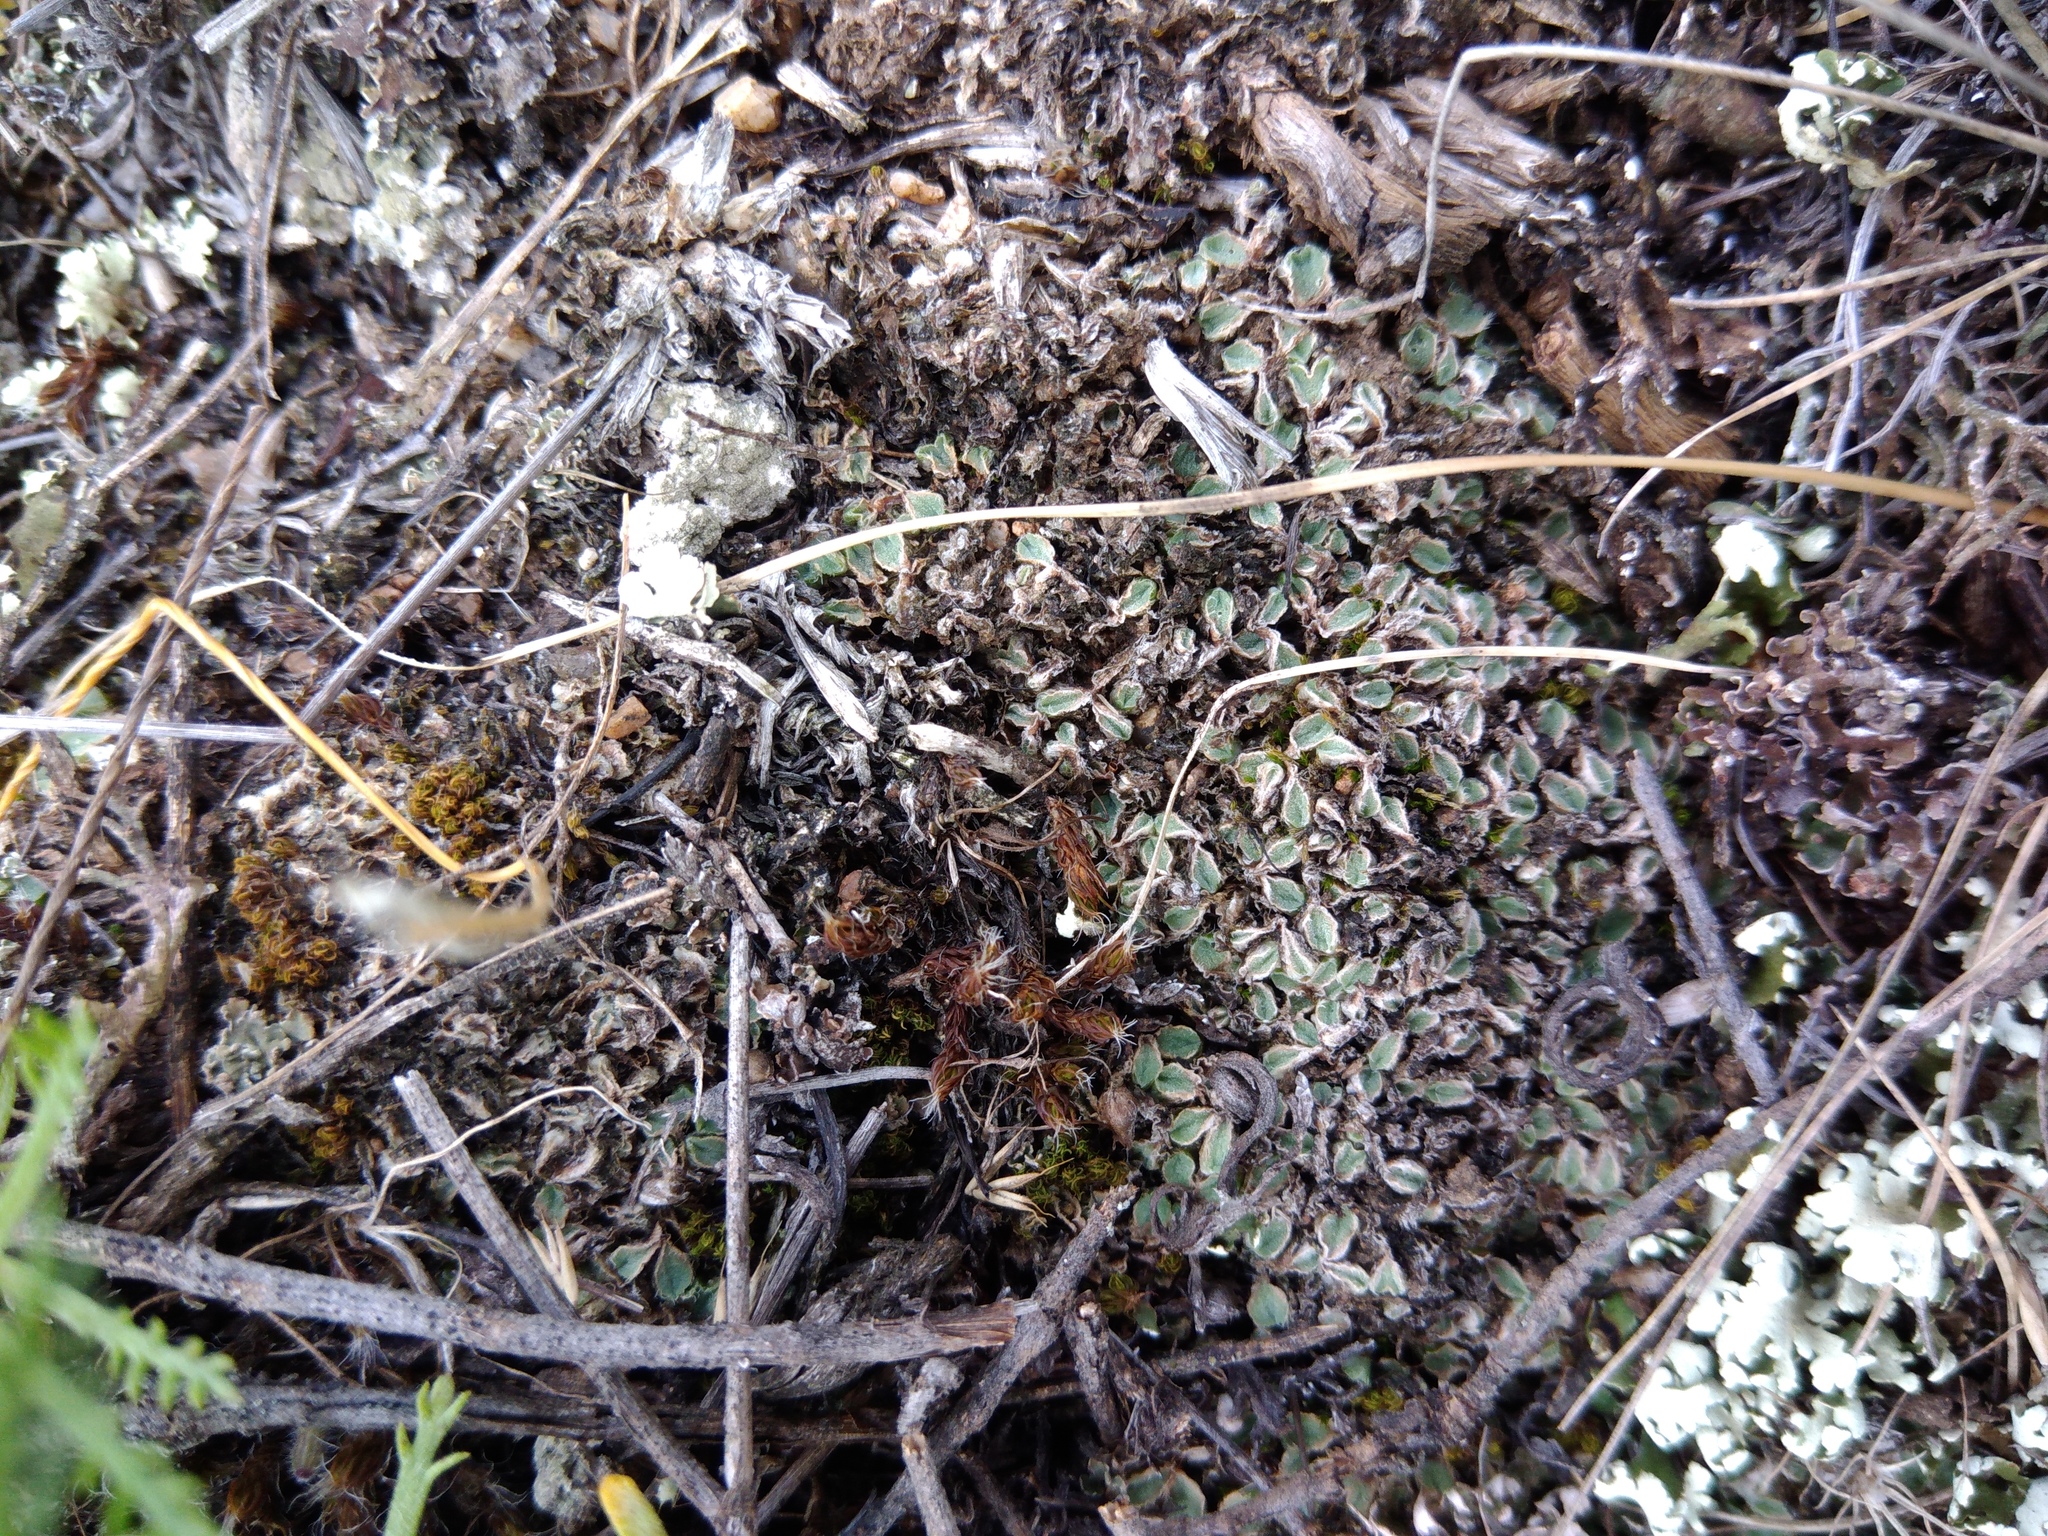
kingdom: Plantae
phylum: Marchantiophyta
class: Marchantiopsida
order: Marchantiales
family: Ricciaceae
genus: Riccia
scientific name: Riccia ciliifera
